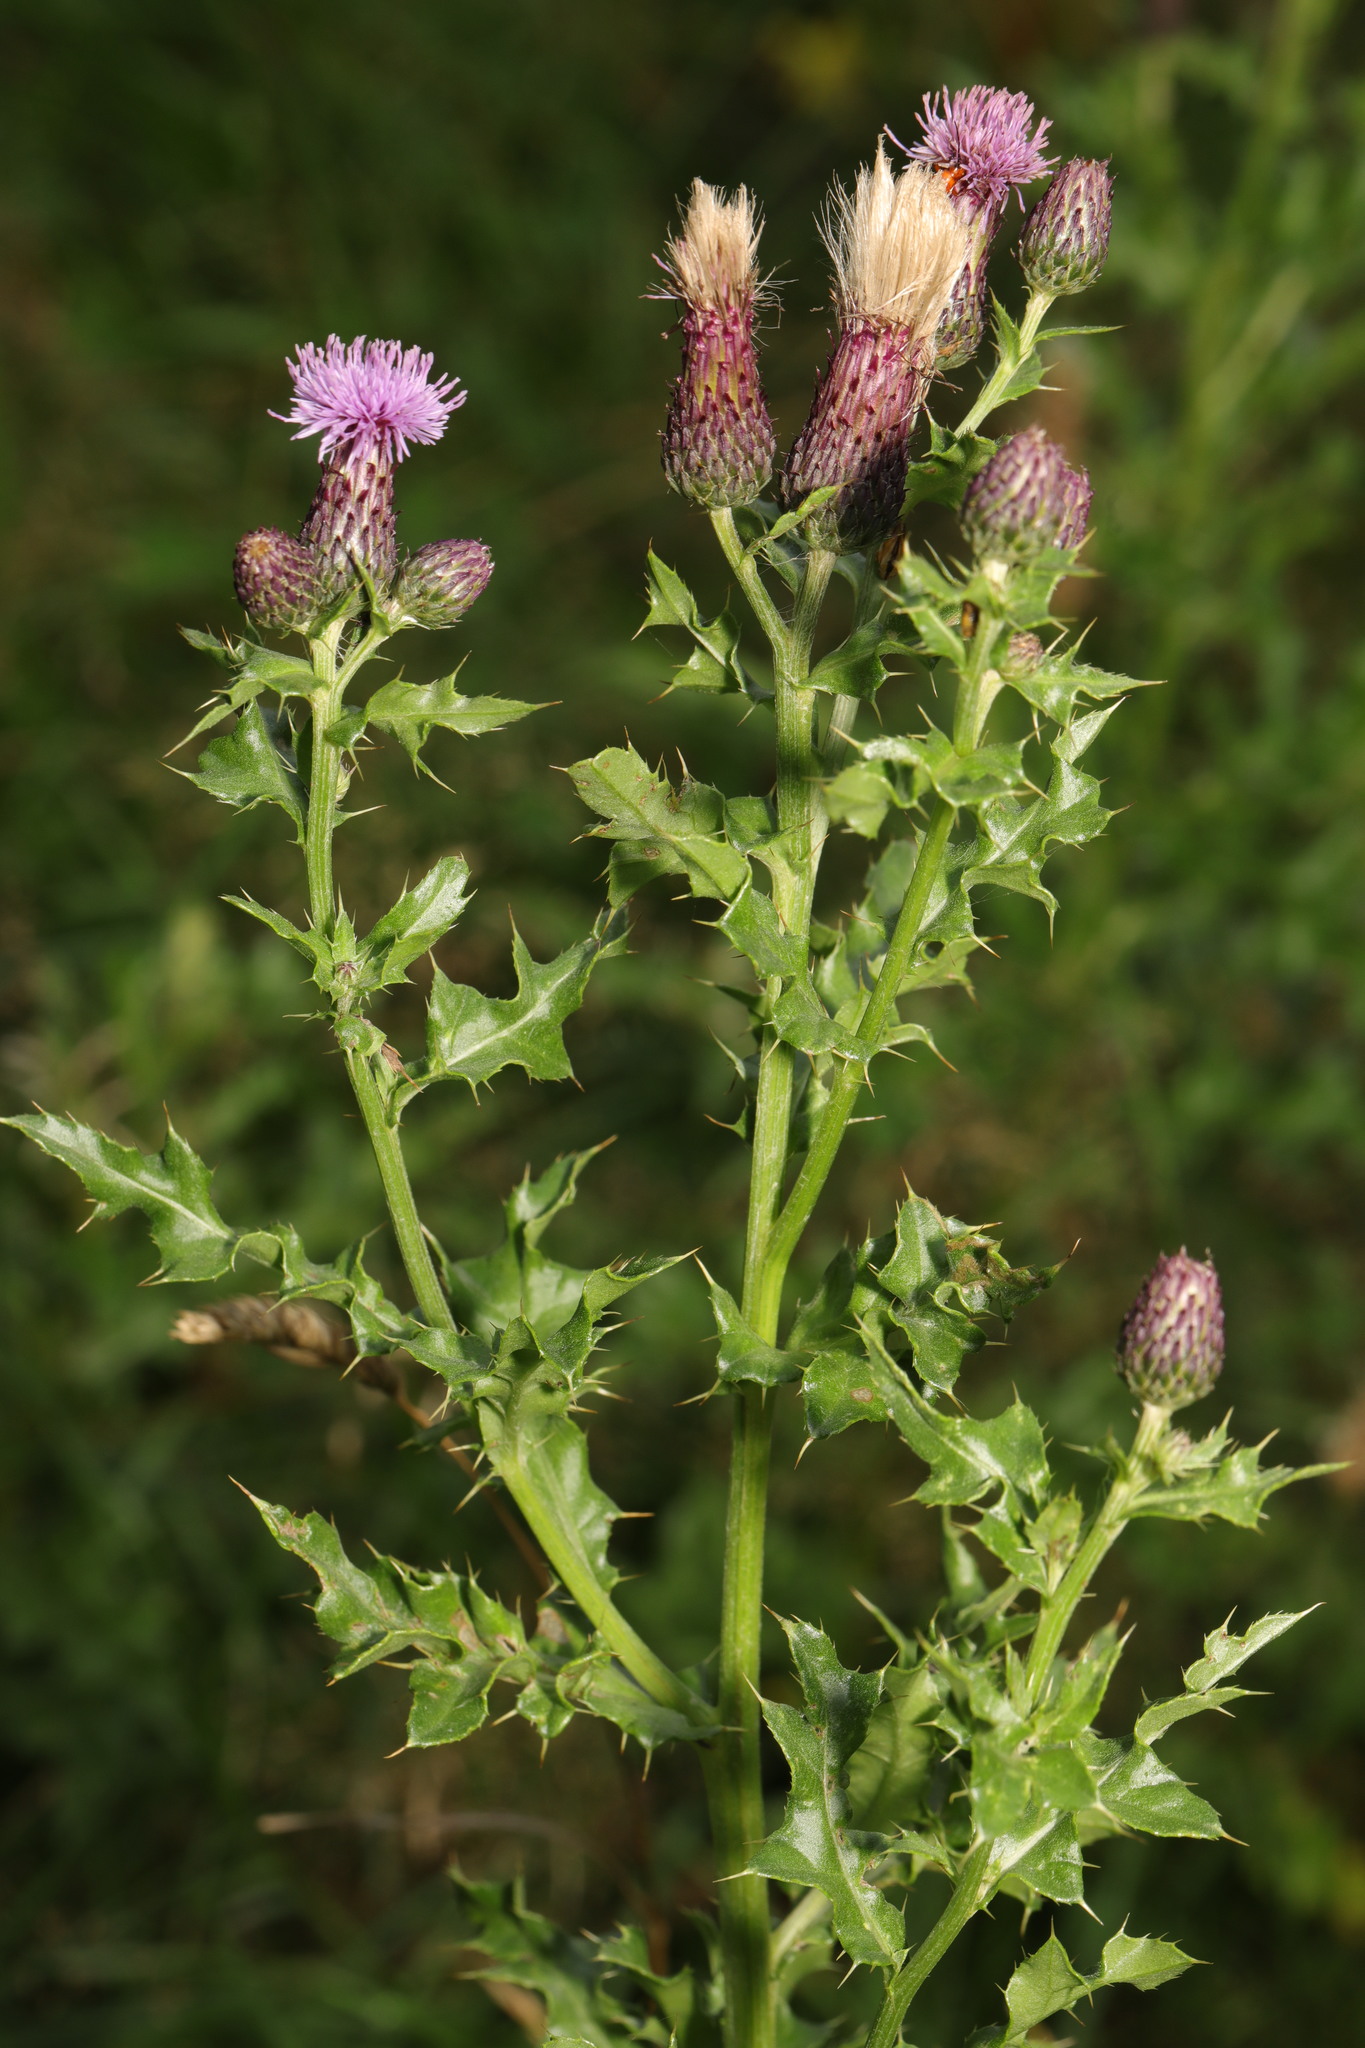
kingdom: Plantae
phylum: Tracheophyta
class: Magnoliopsida
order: Asterales
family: Asteraceae
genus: Cirsium
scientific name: Cirsium arvense
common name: Creeping thistle
